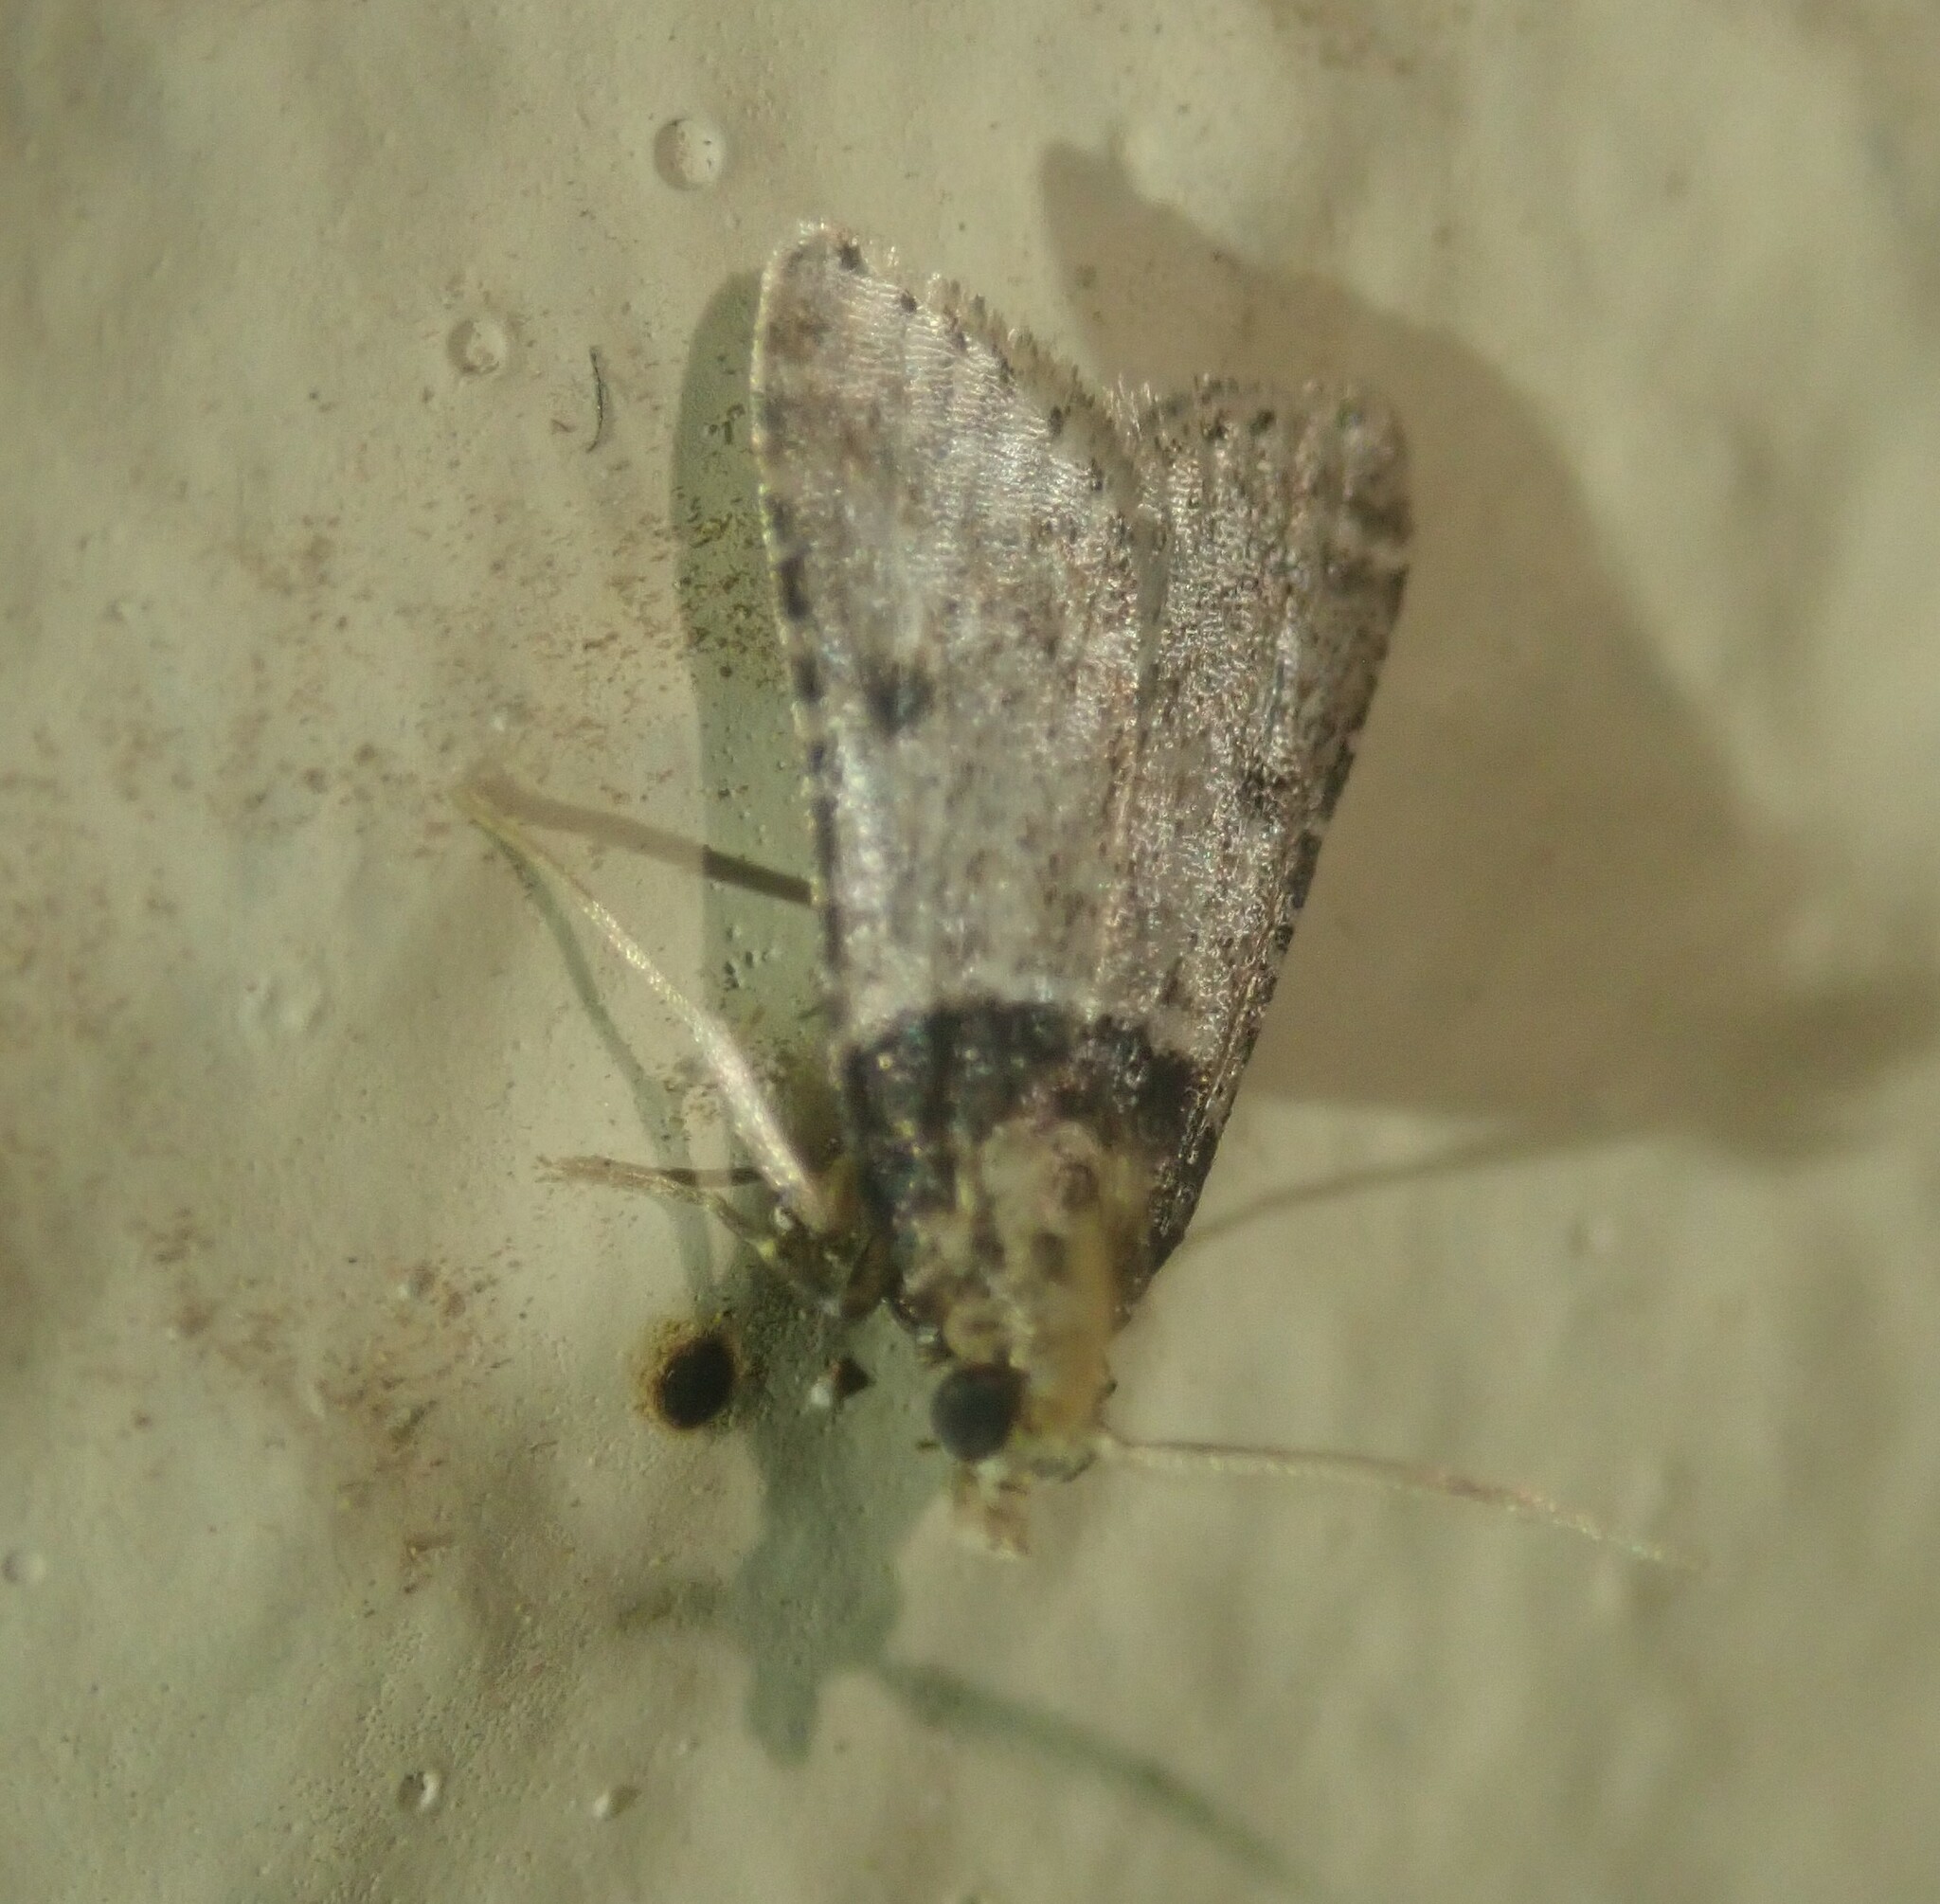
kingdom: Animalia
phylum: Arthropoda
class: Insecta
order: Lepidoptera
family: Pyralidae
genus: Philotis
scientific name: Philotis basalis
